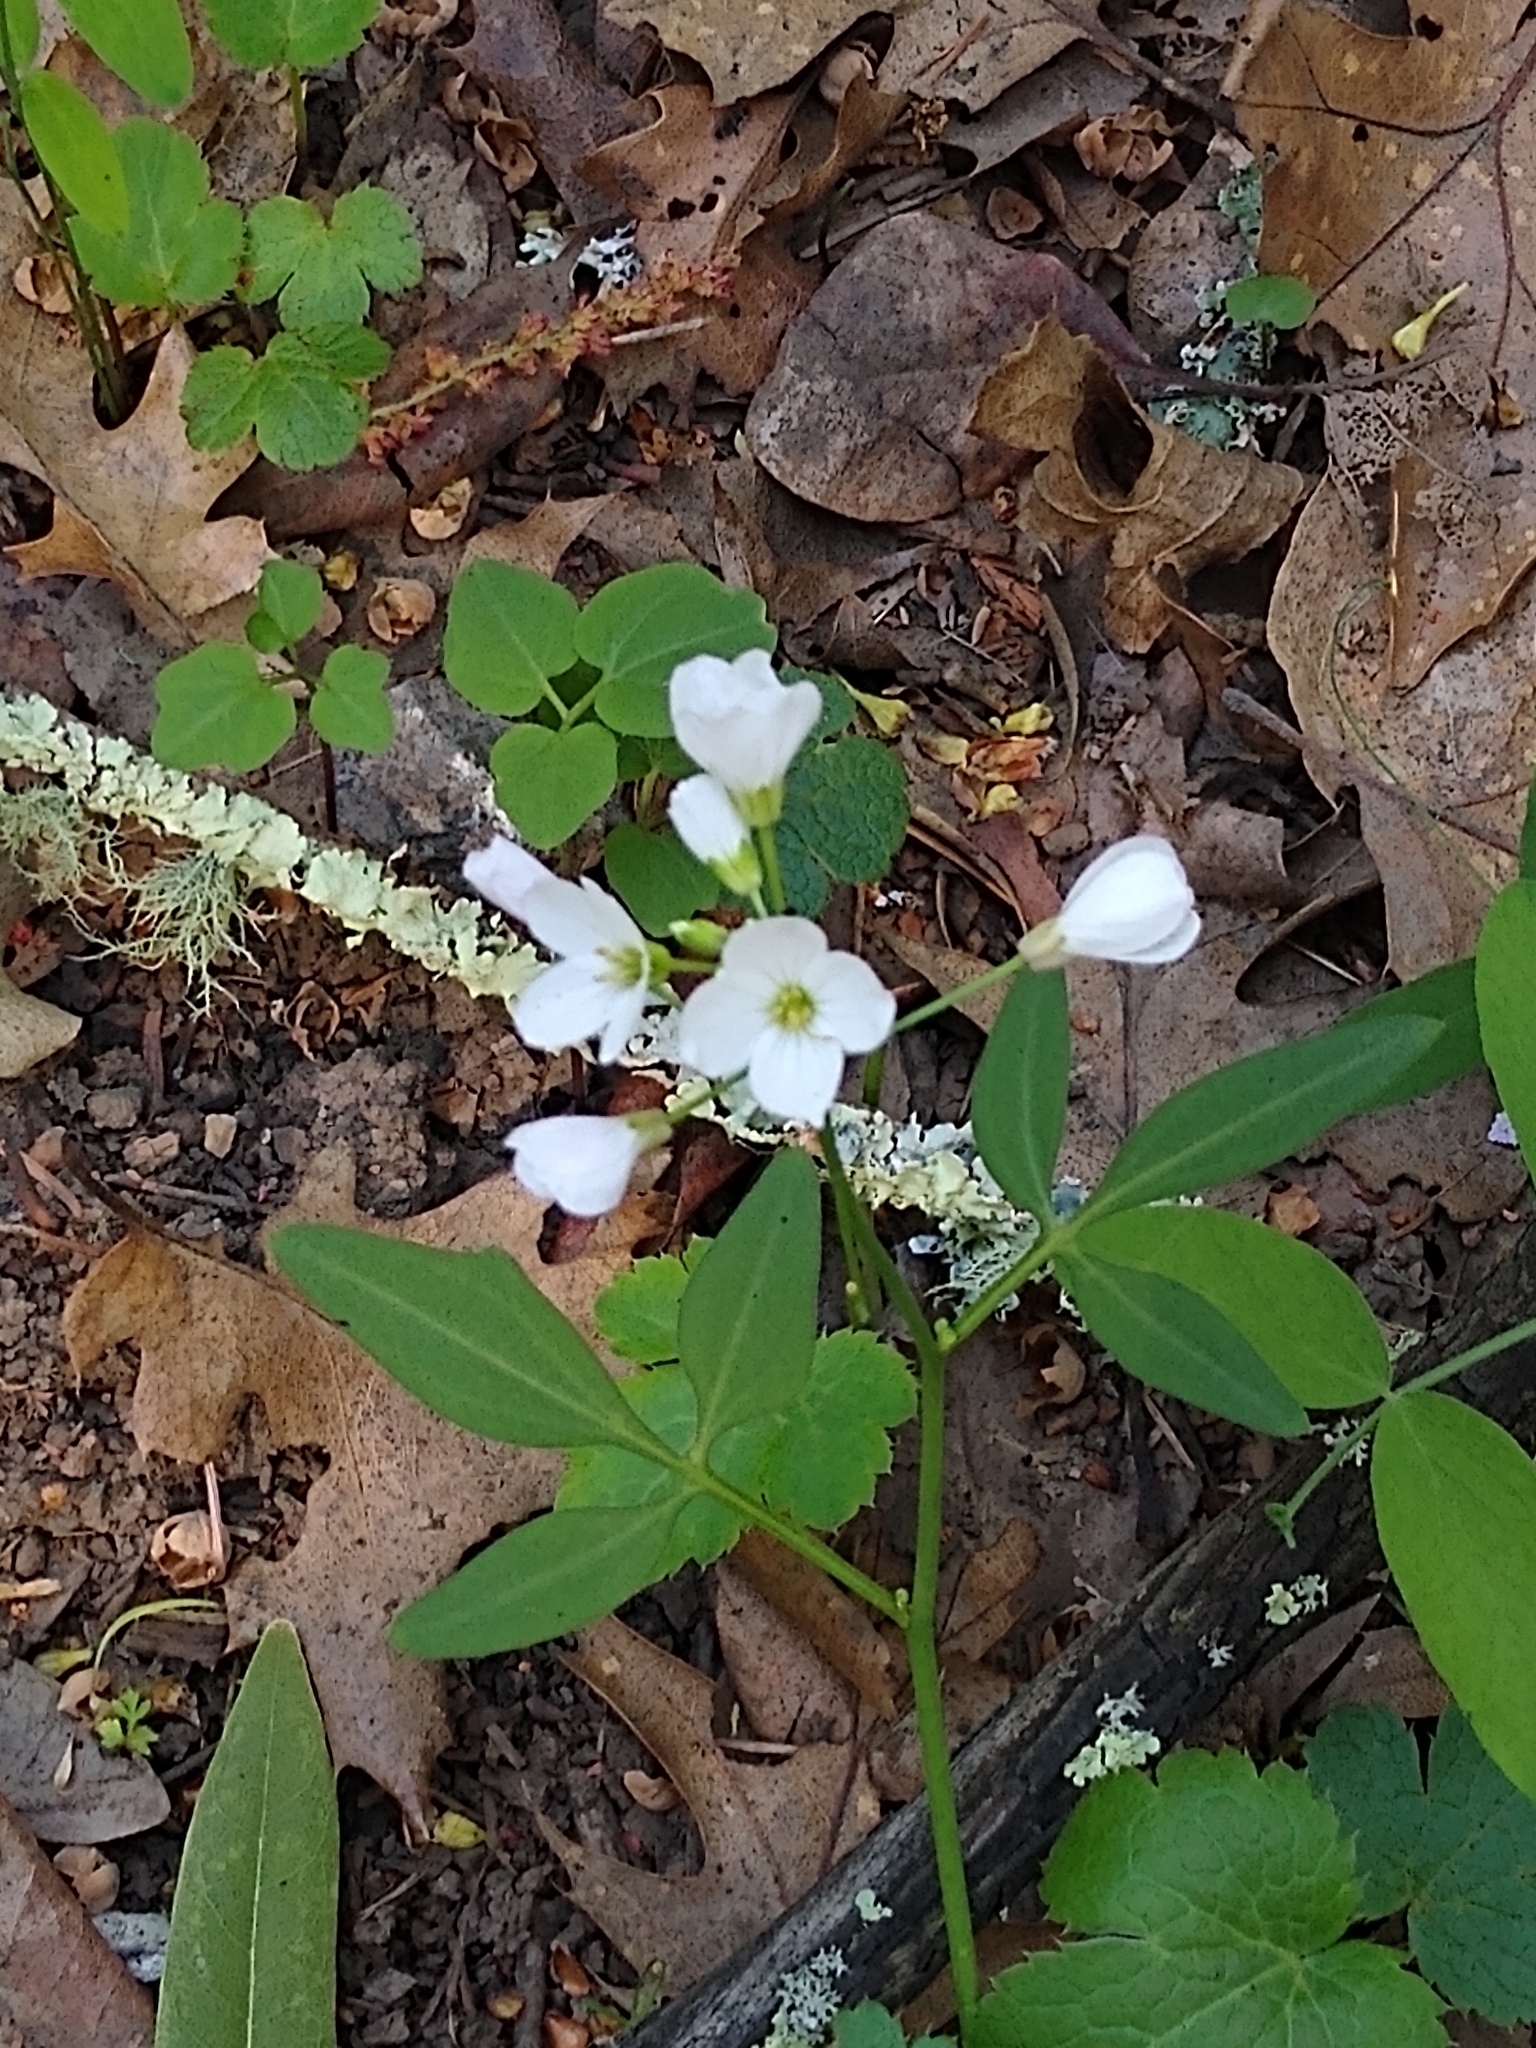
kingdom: Plantae
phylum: Tracheophyta
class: Magnoliopsida
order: Brassicales
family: Brassicaceae
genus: Cardamine
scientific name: Cardamine californica
